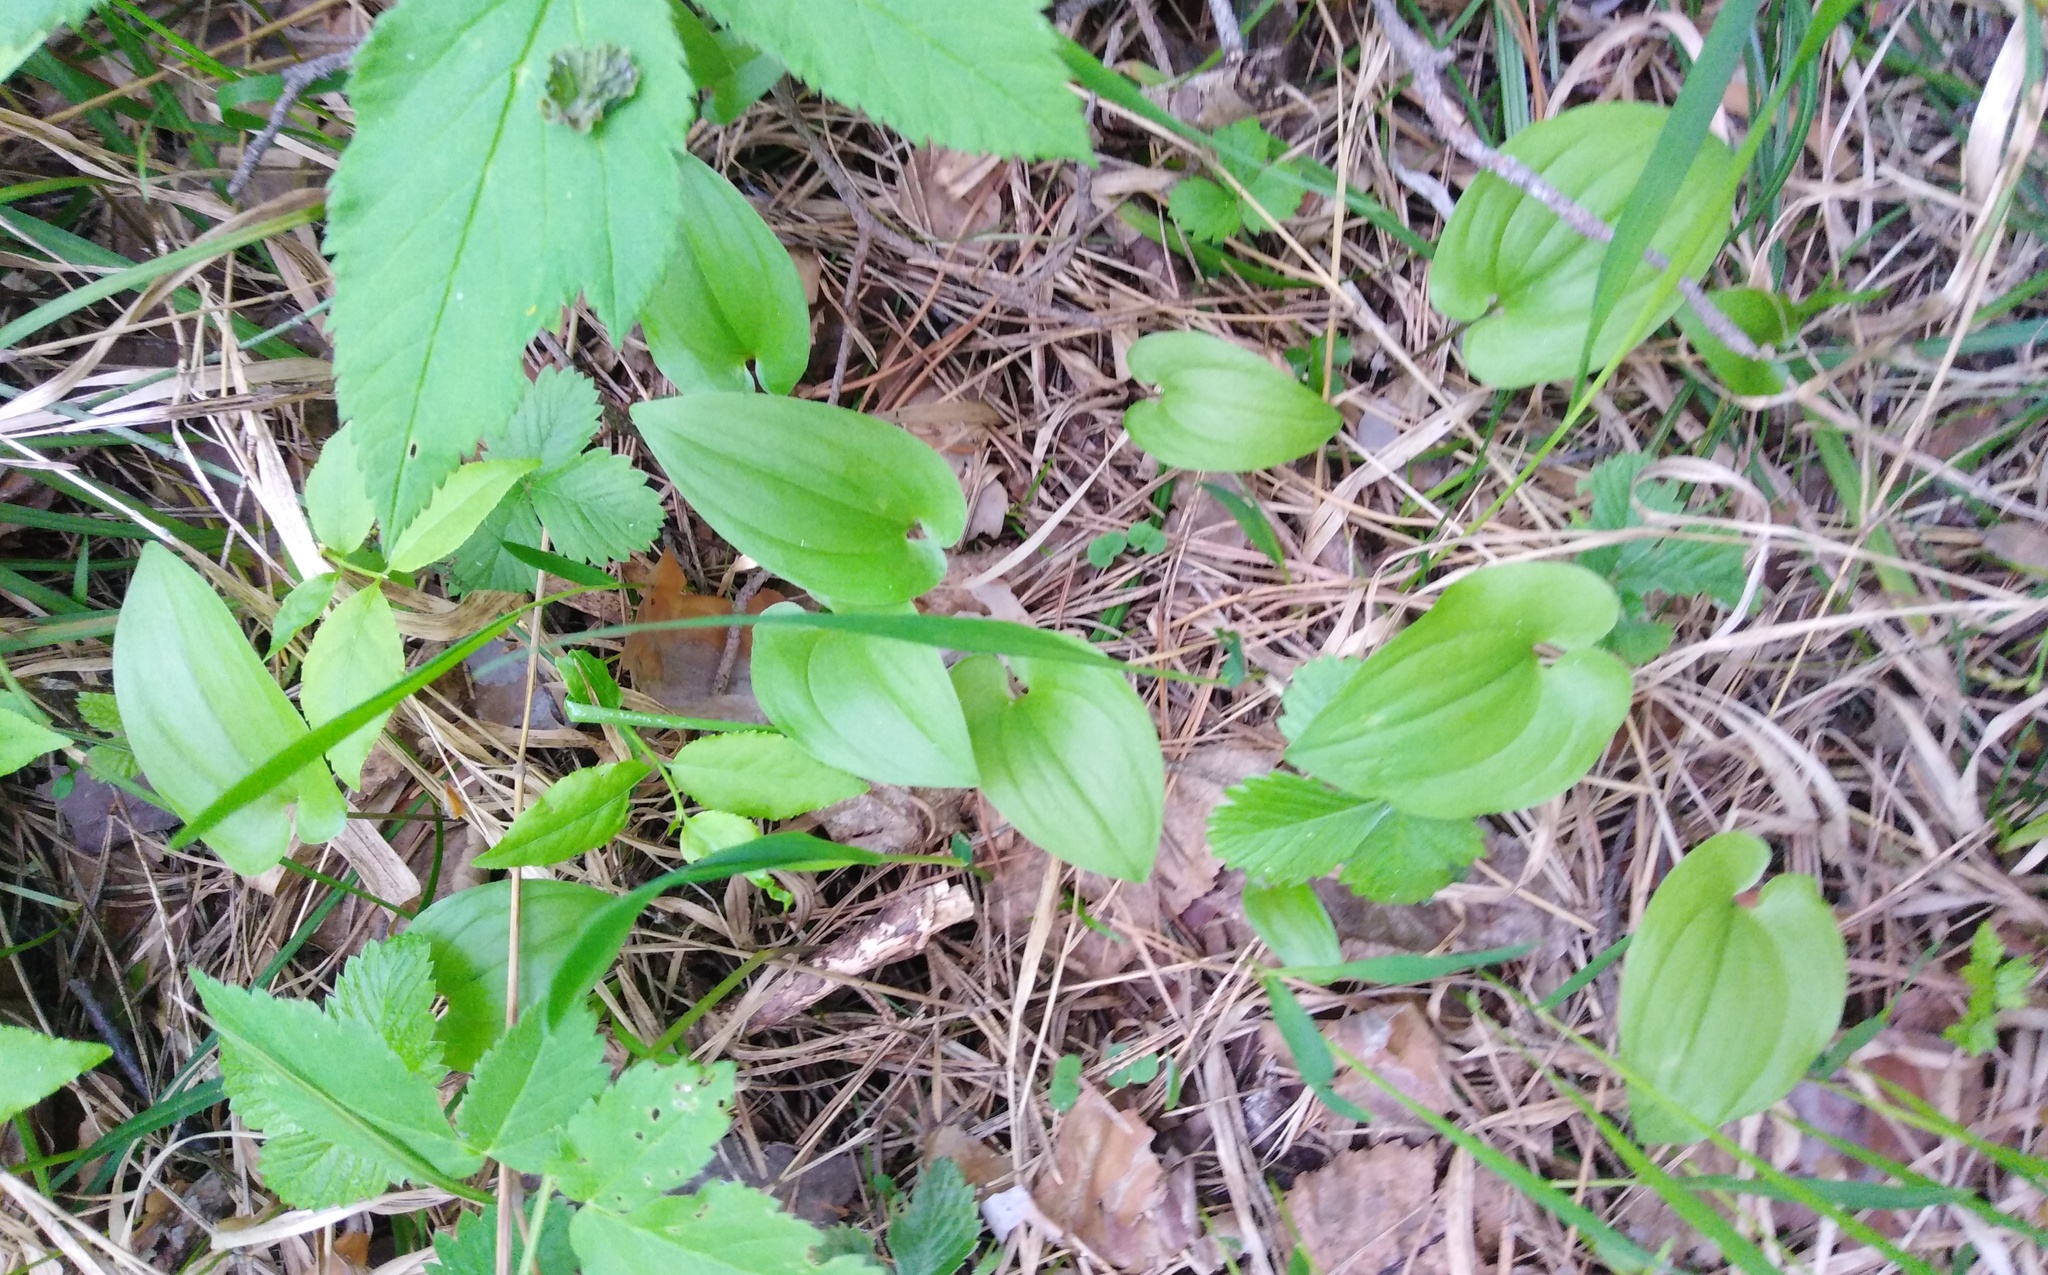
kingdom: Plantae
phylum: Tracheophyta
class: Liliopsida
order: Asparagales
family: Asparagaceae
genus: Maianthemum
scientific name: Maianthemum bifolium
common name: May lily
